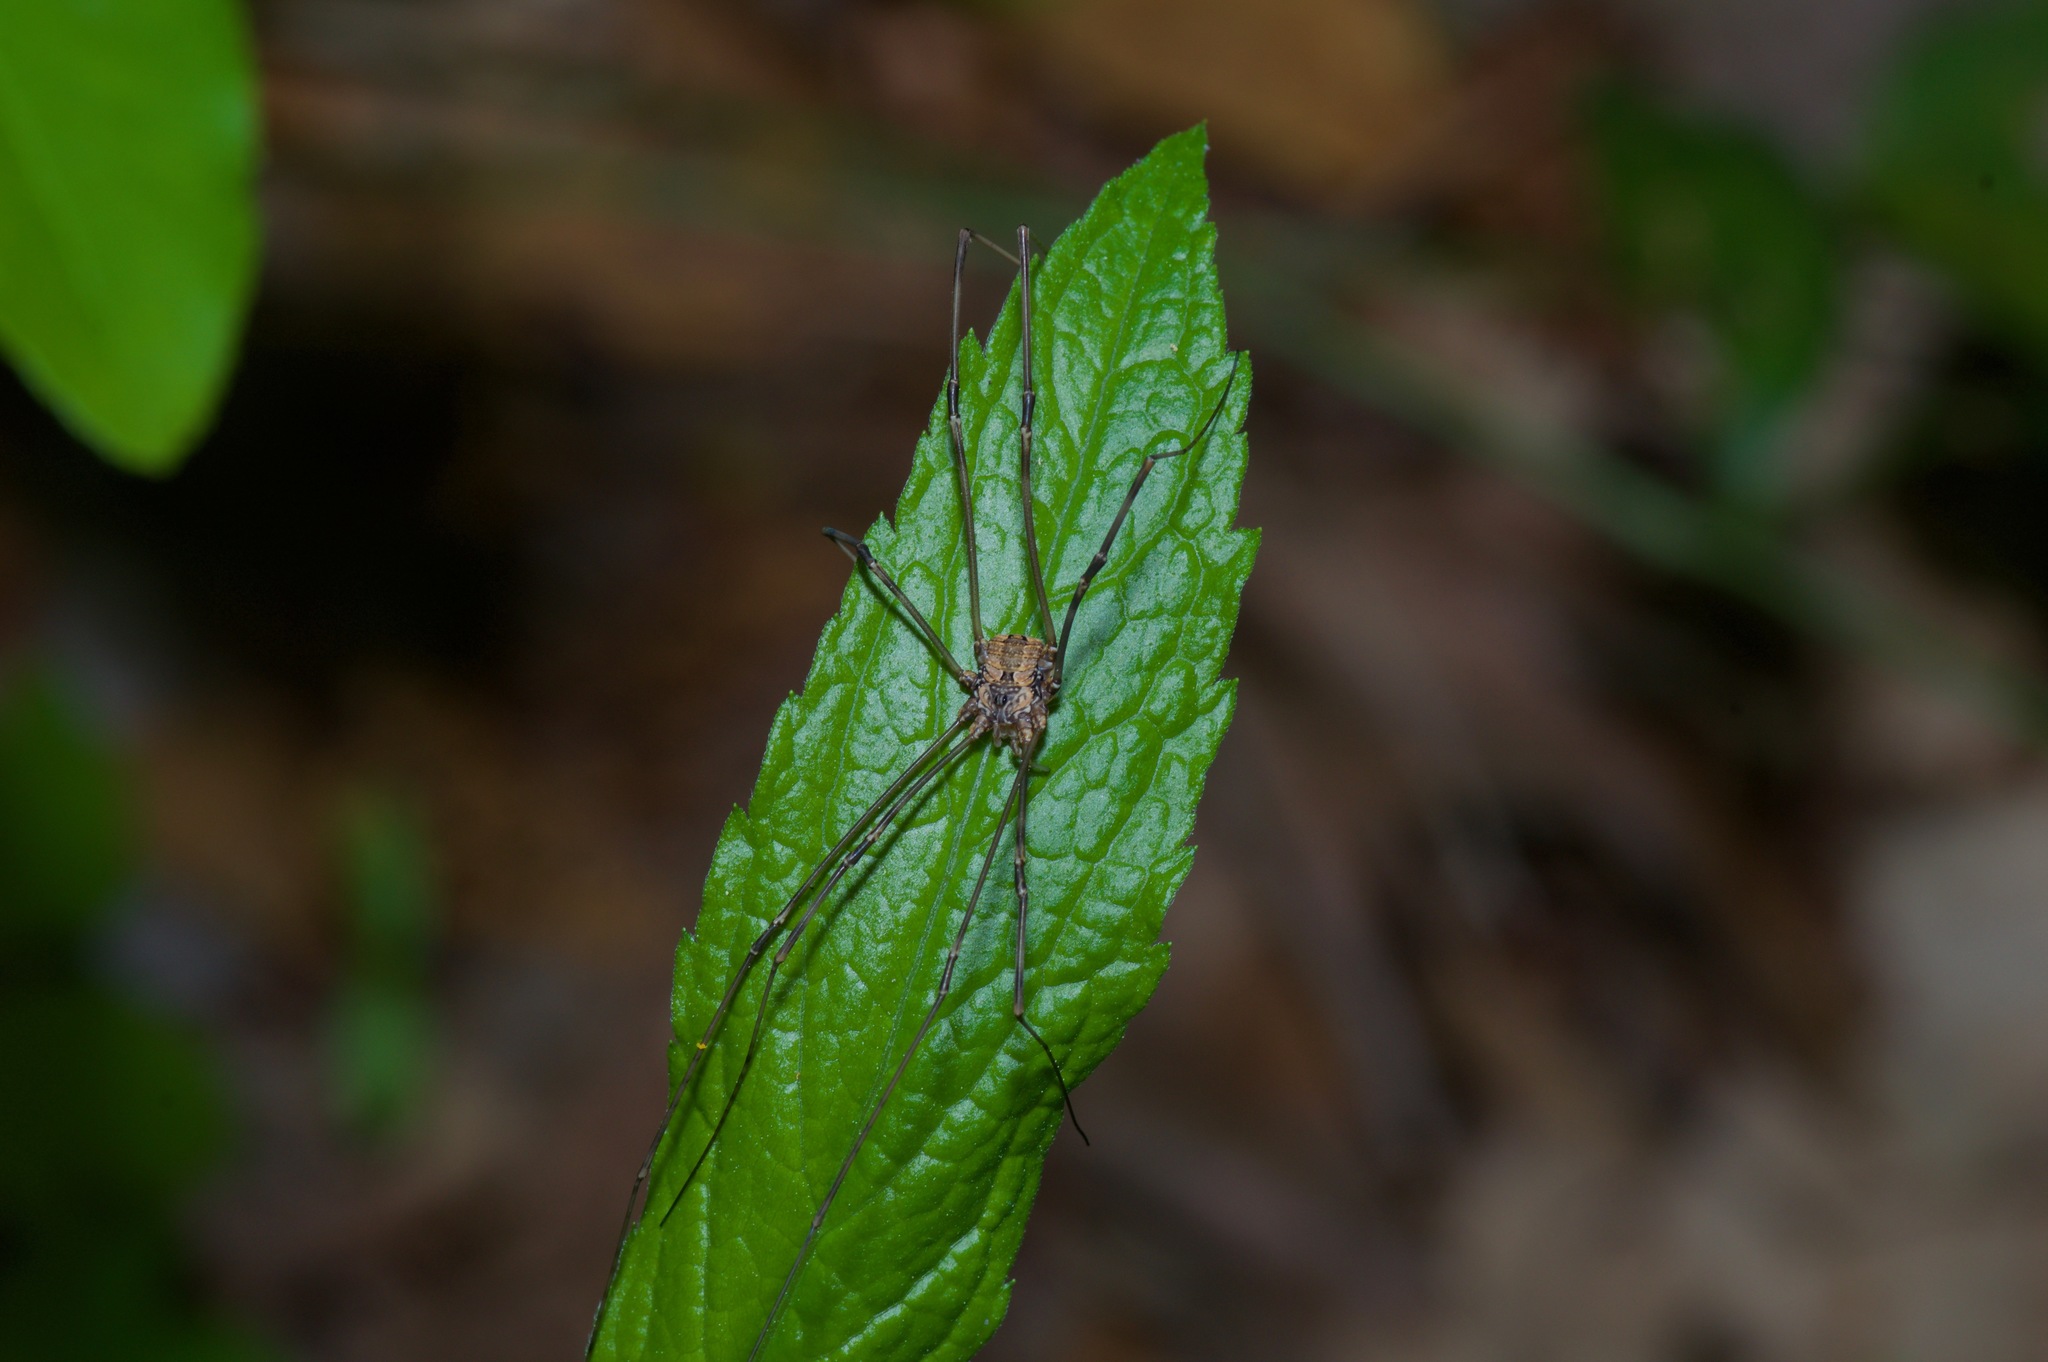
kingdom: Animalia
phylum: Arthropoda
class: Arachnida
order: Opiliones
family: Sclerosomatidae
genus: Leiobunum
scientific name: Leiobunum flavum
